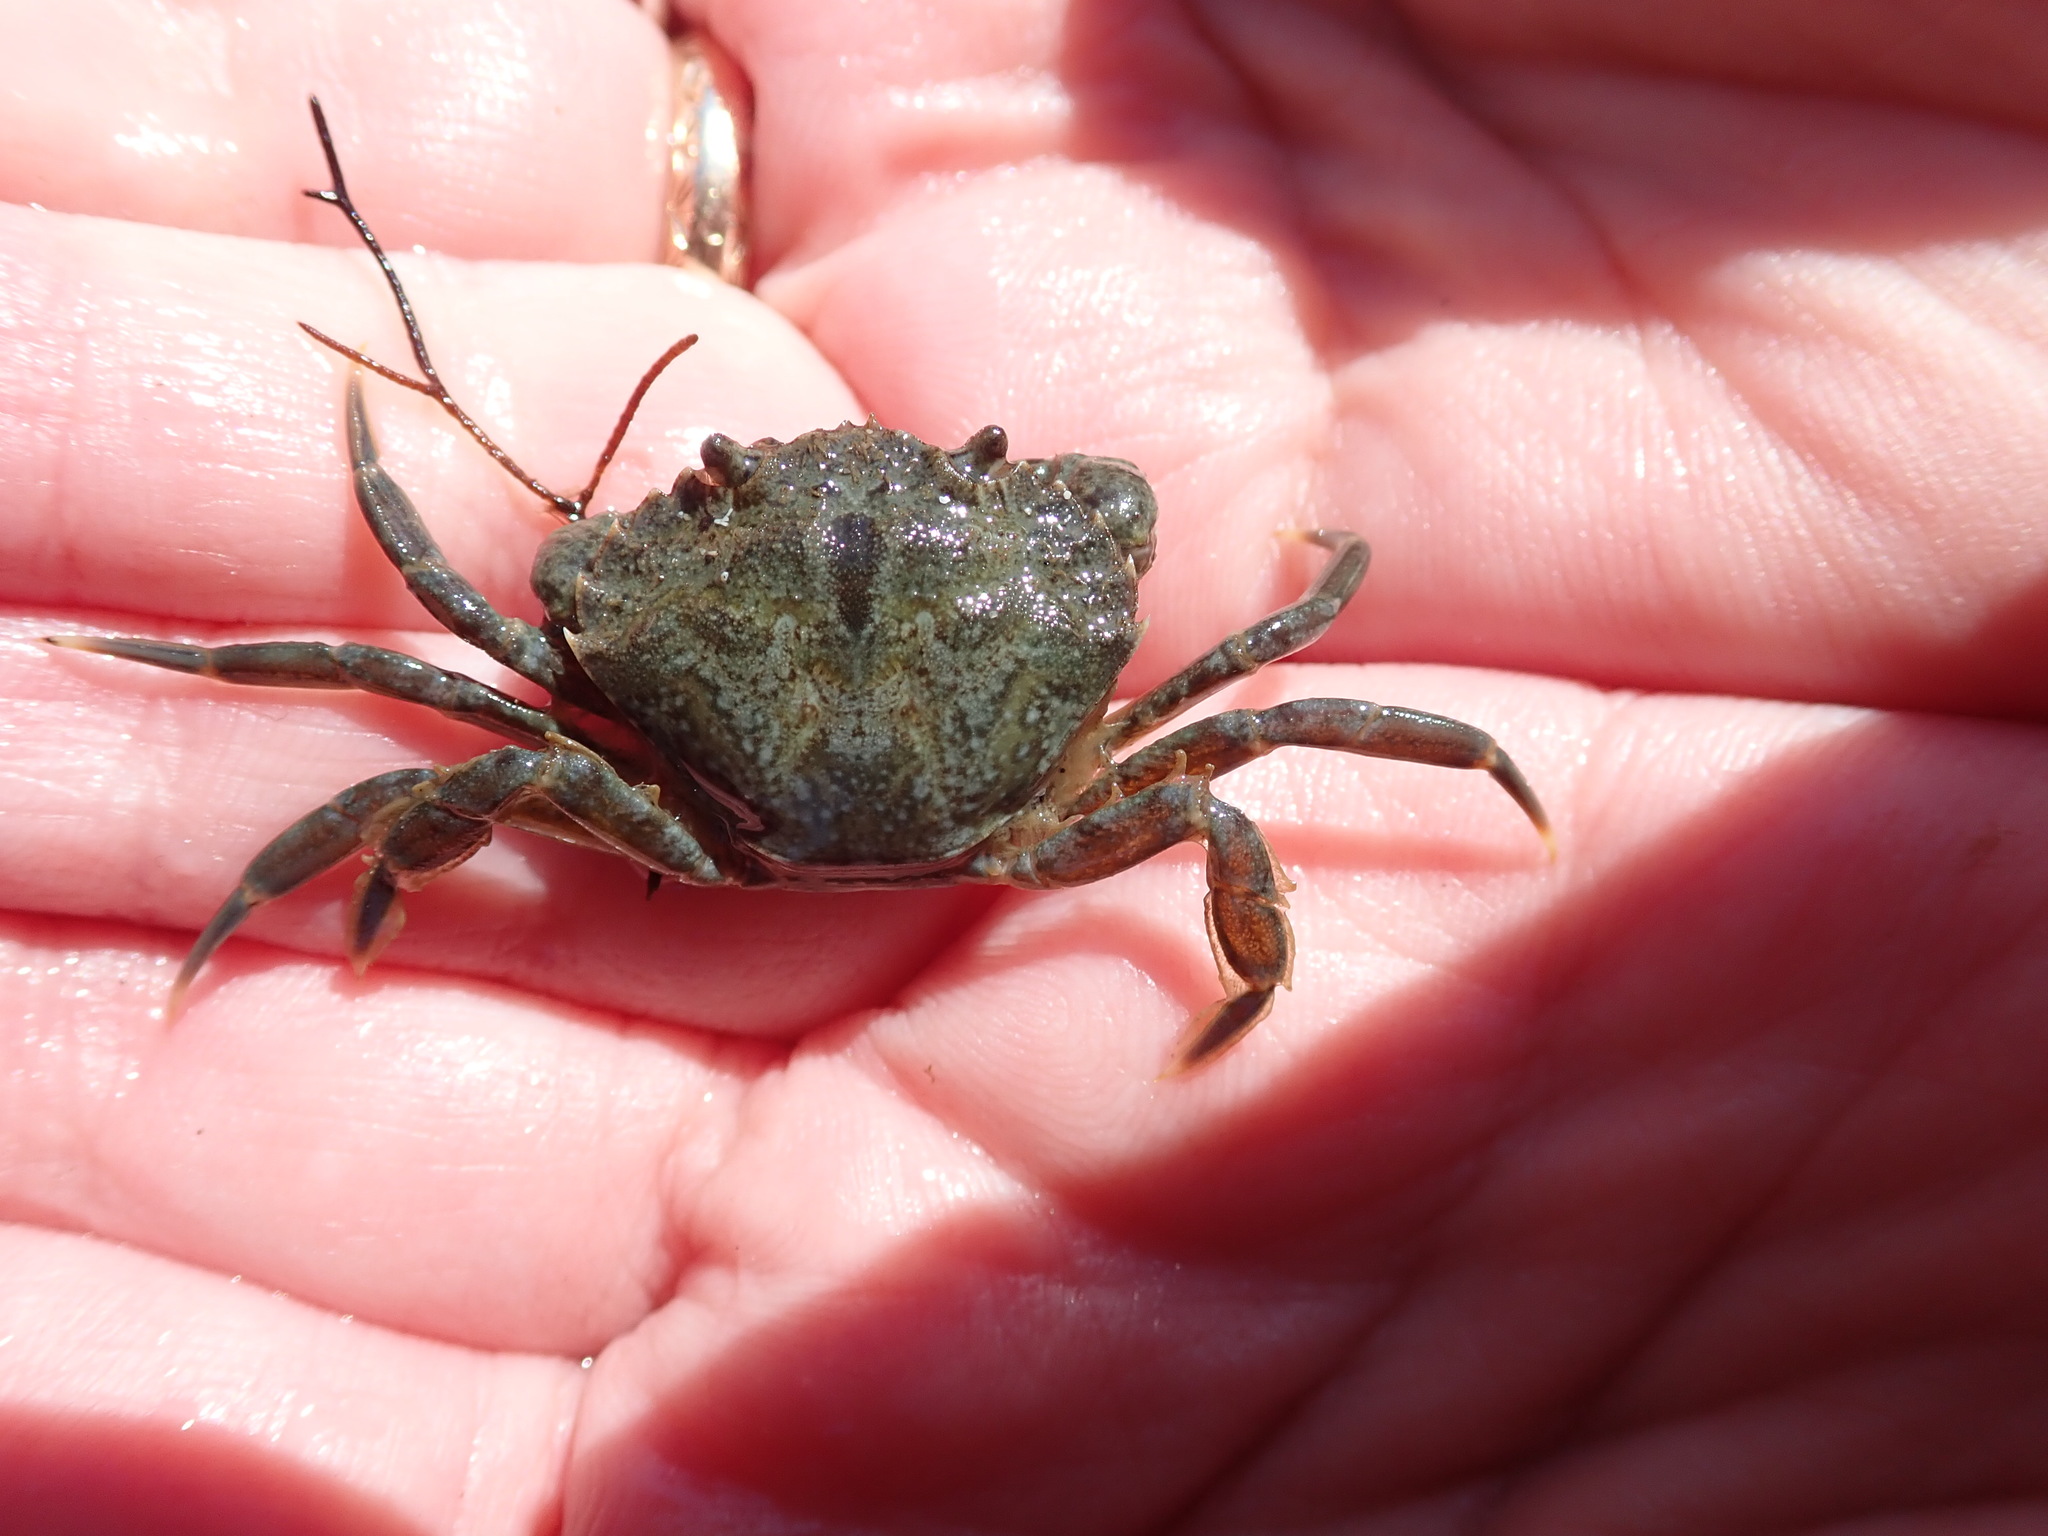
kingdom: Animalia
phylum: Arthropoda
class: Malacostraca
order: Decapoda
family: Carcinidae
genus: Carcinus
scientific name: Carcinus maenas
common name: European green crab
